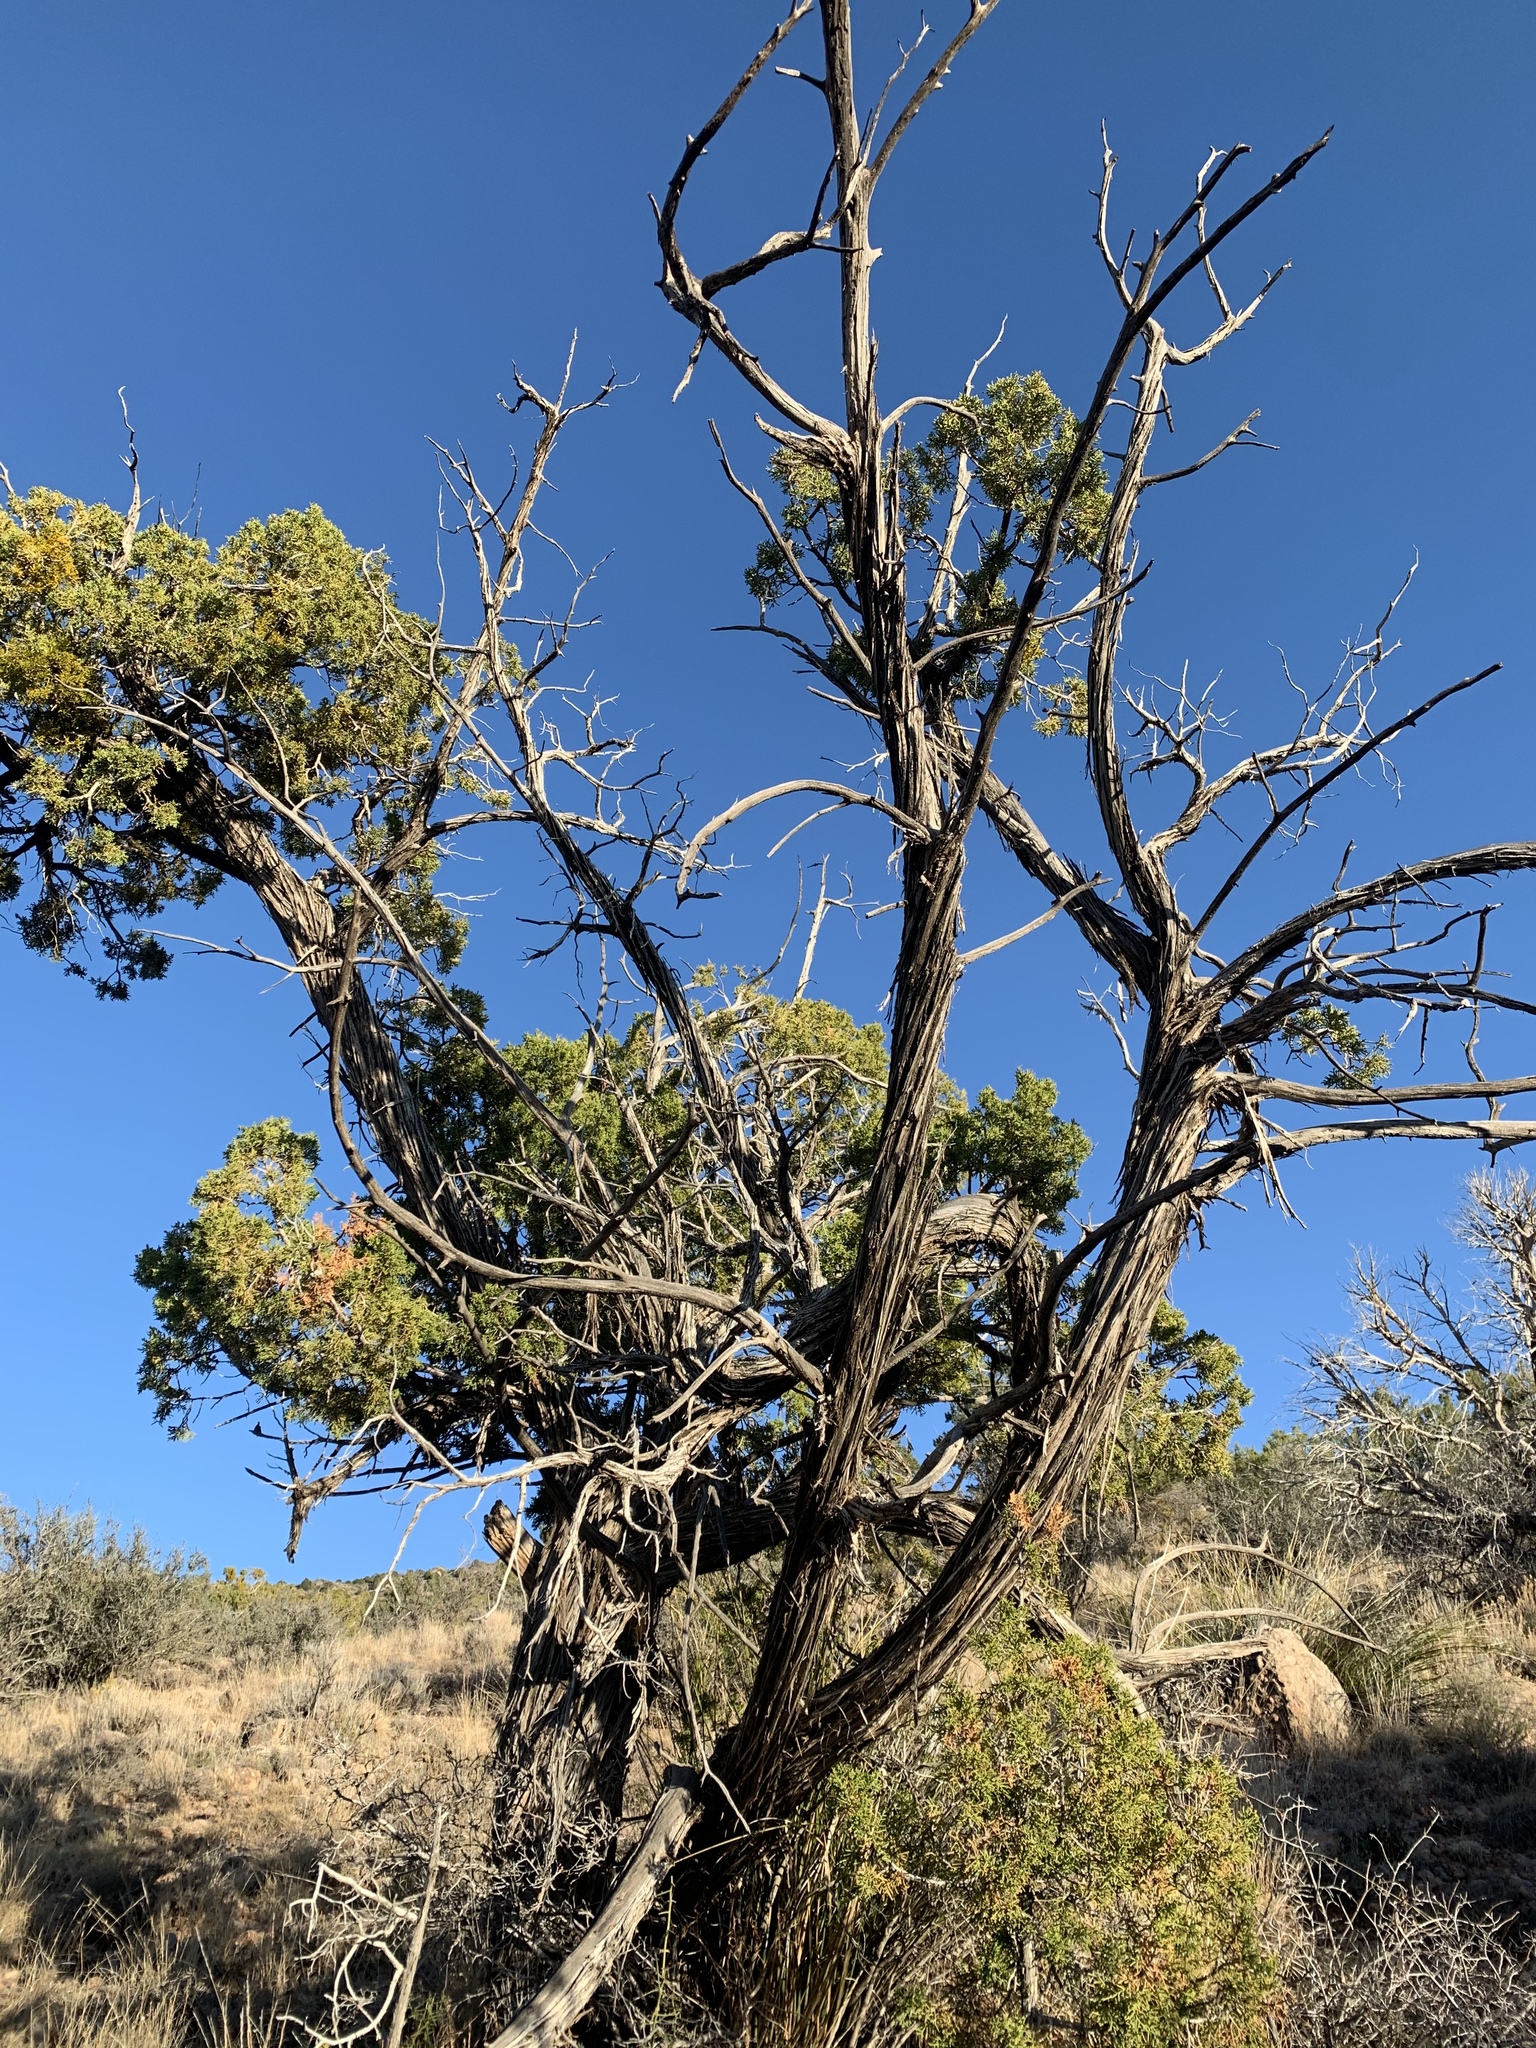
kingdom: Plantae
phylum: Tracheophyta
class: Pinopsida
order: Pinales
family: Cupressaceae
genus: Juniperus
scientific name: Juniperus monosperma
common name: One-seed juniper
